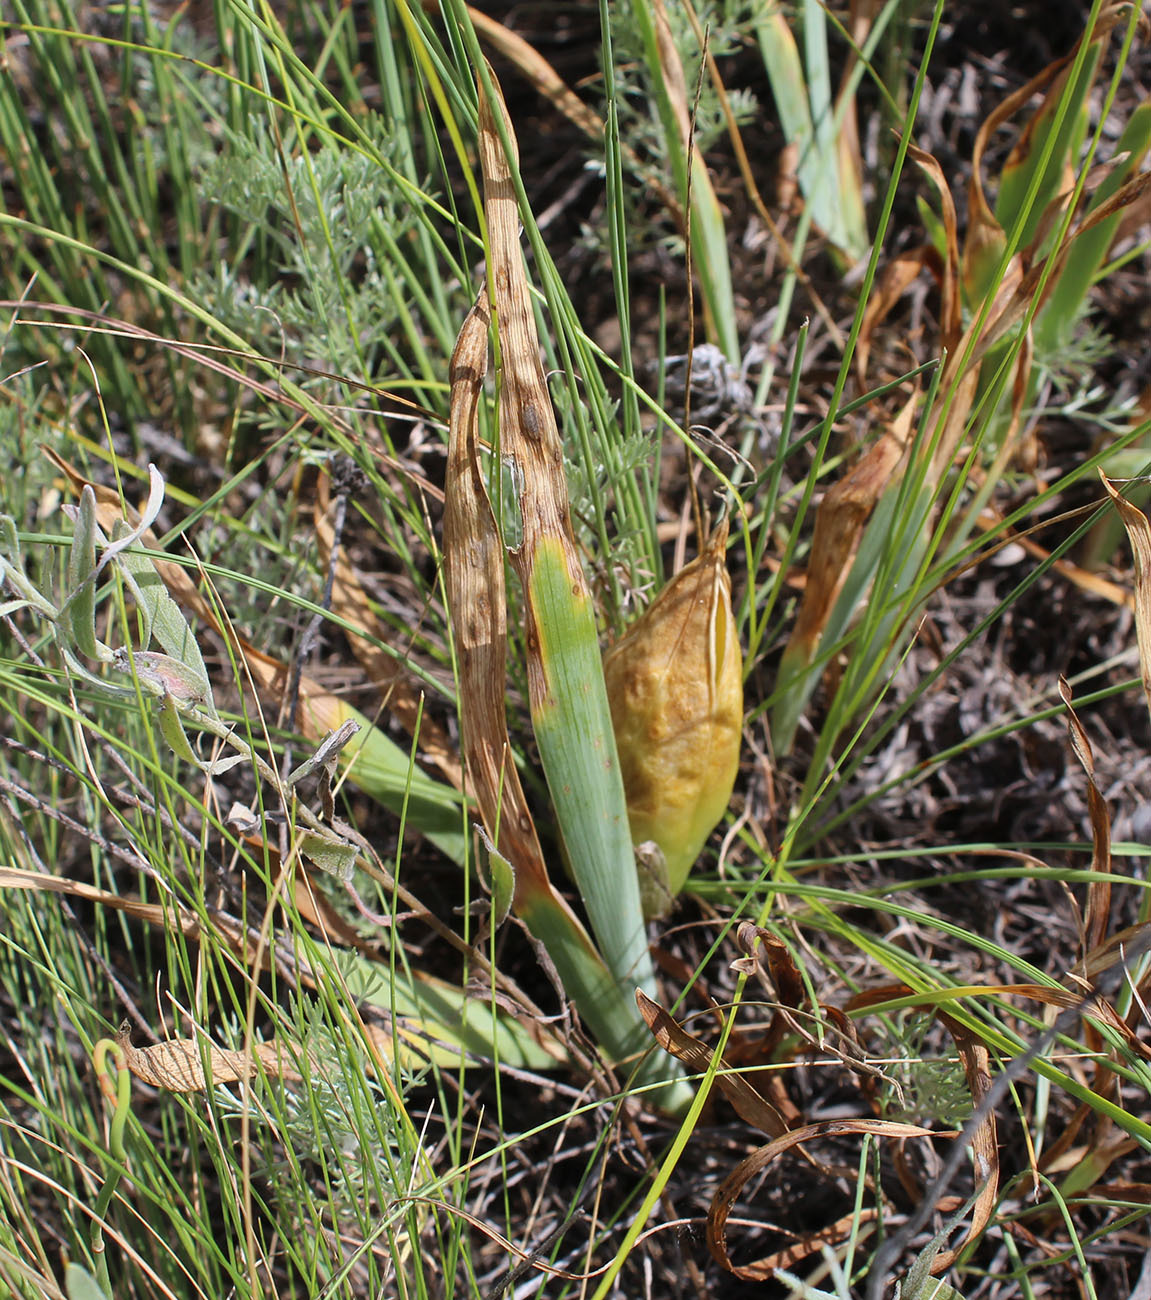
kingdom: Plantae
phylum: Tracheophyta
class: Liliopsida
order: Asparagales
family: Iridaceae
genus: Iris
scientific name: Iris pumila
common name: Dwarf iris
